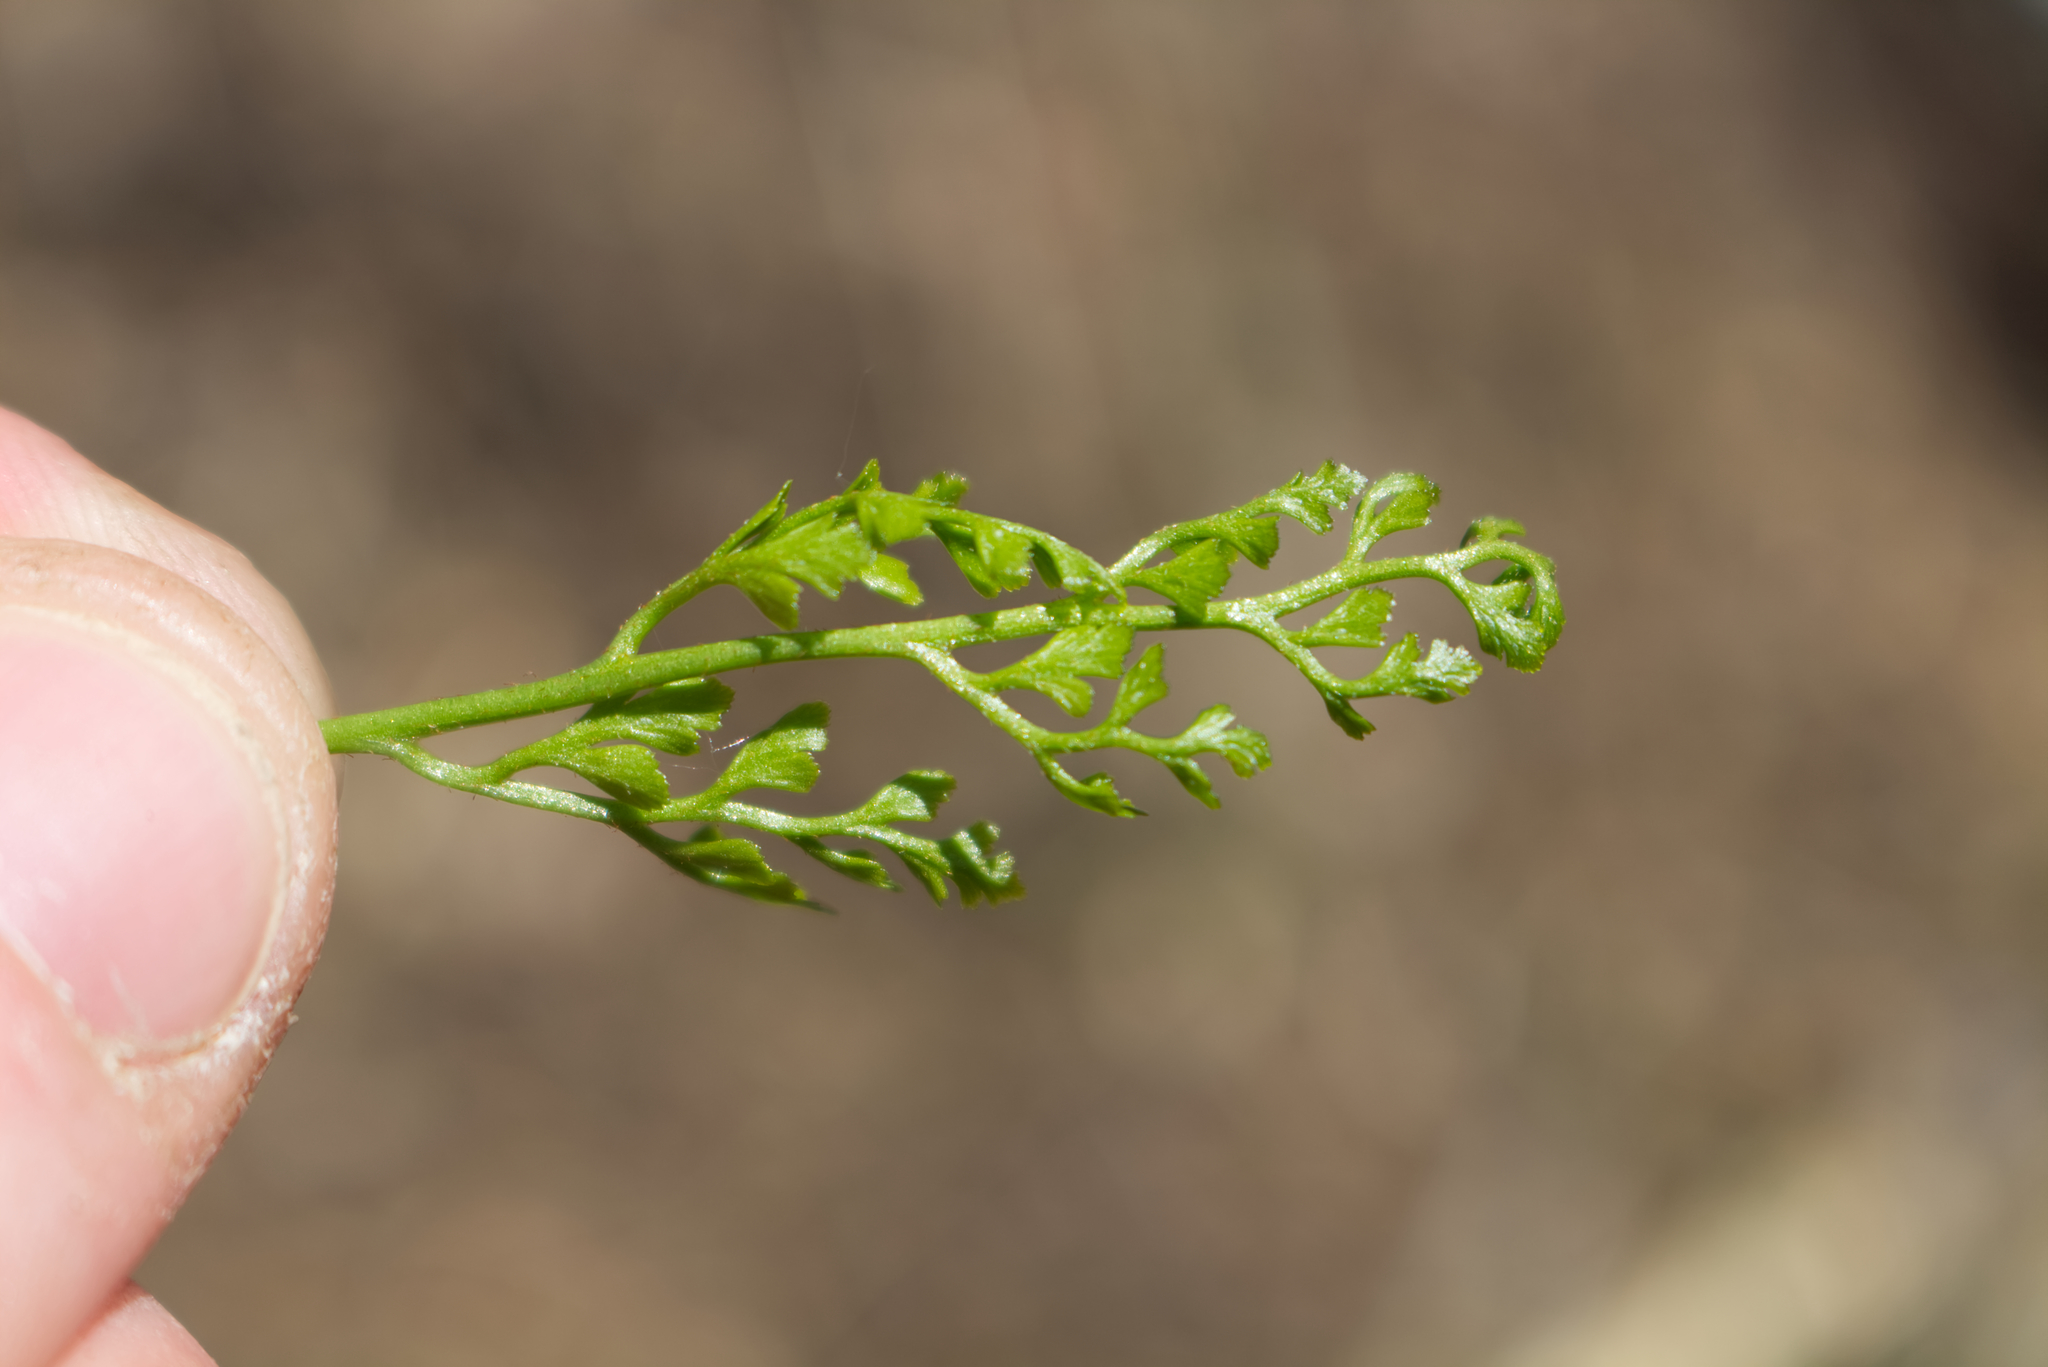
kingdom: Plantae
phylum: Tracheophyta
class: Polypodiopsida
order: Polypodiales
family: Aspleniaceae
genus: Asplenium
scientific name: Asplenium cuneifolium
